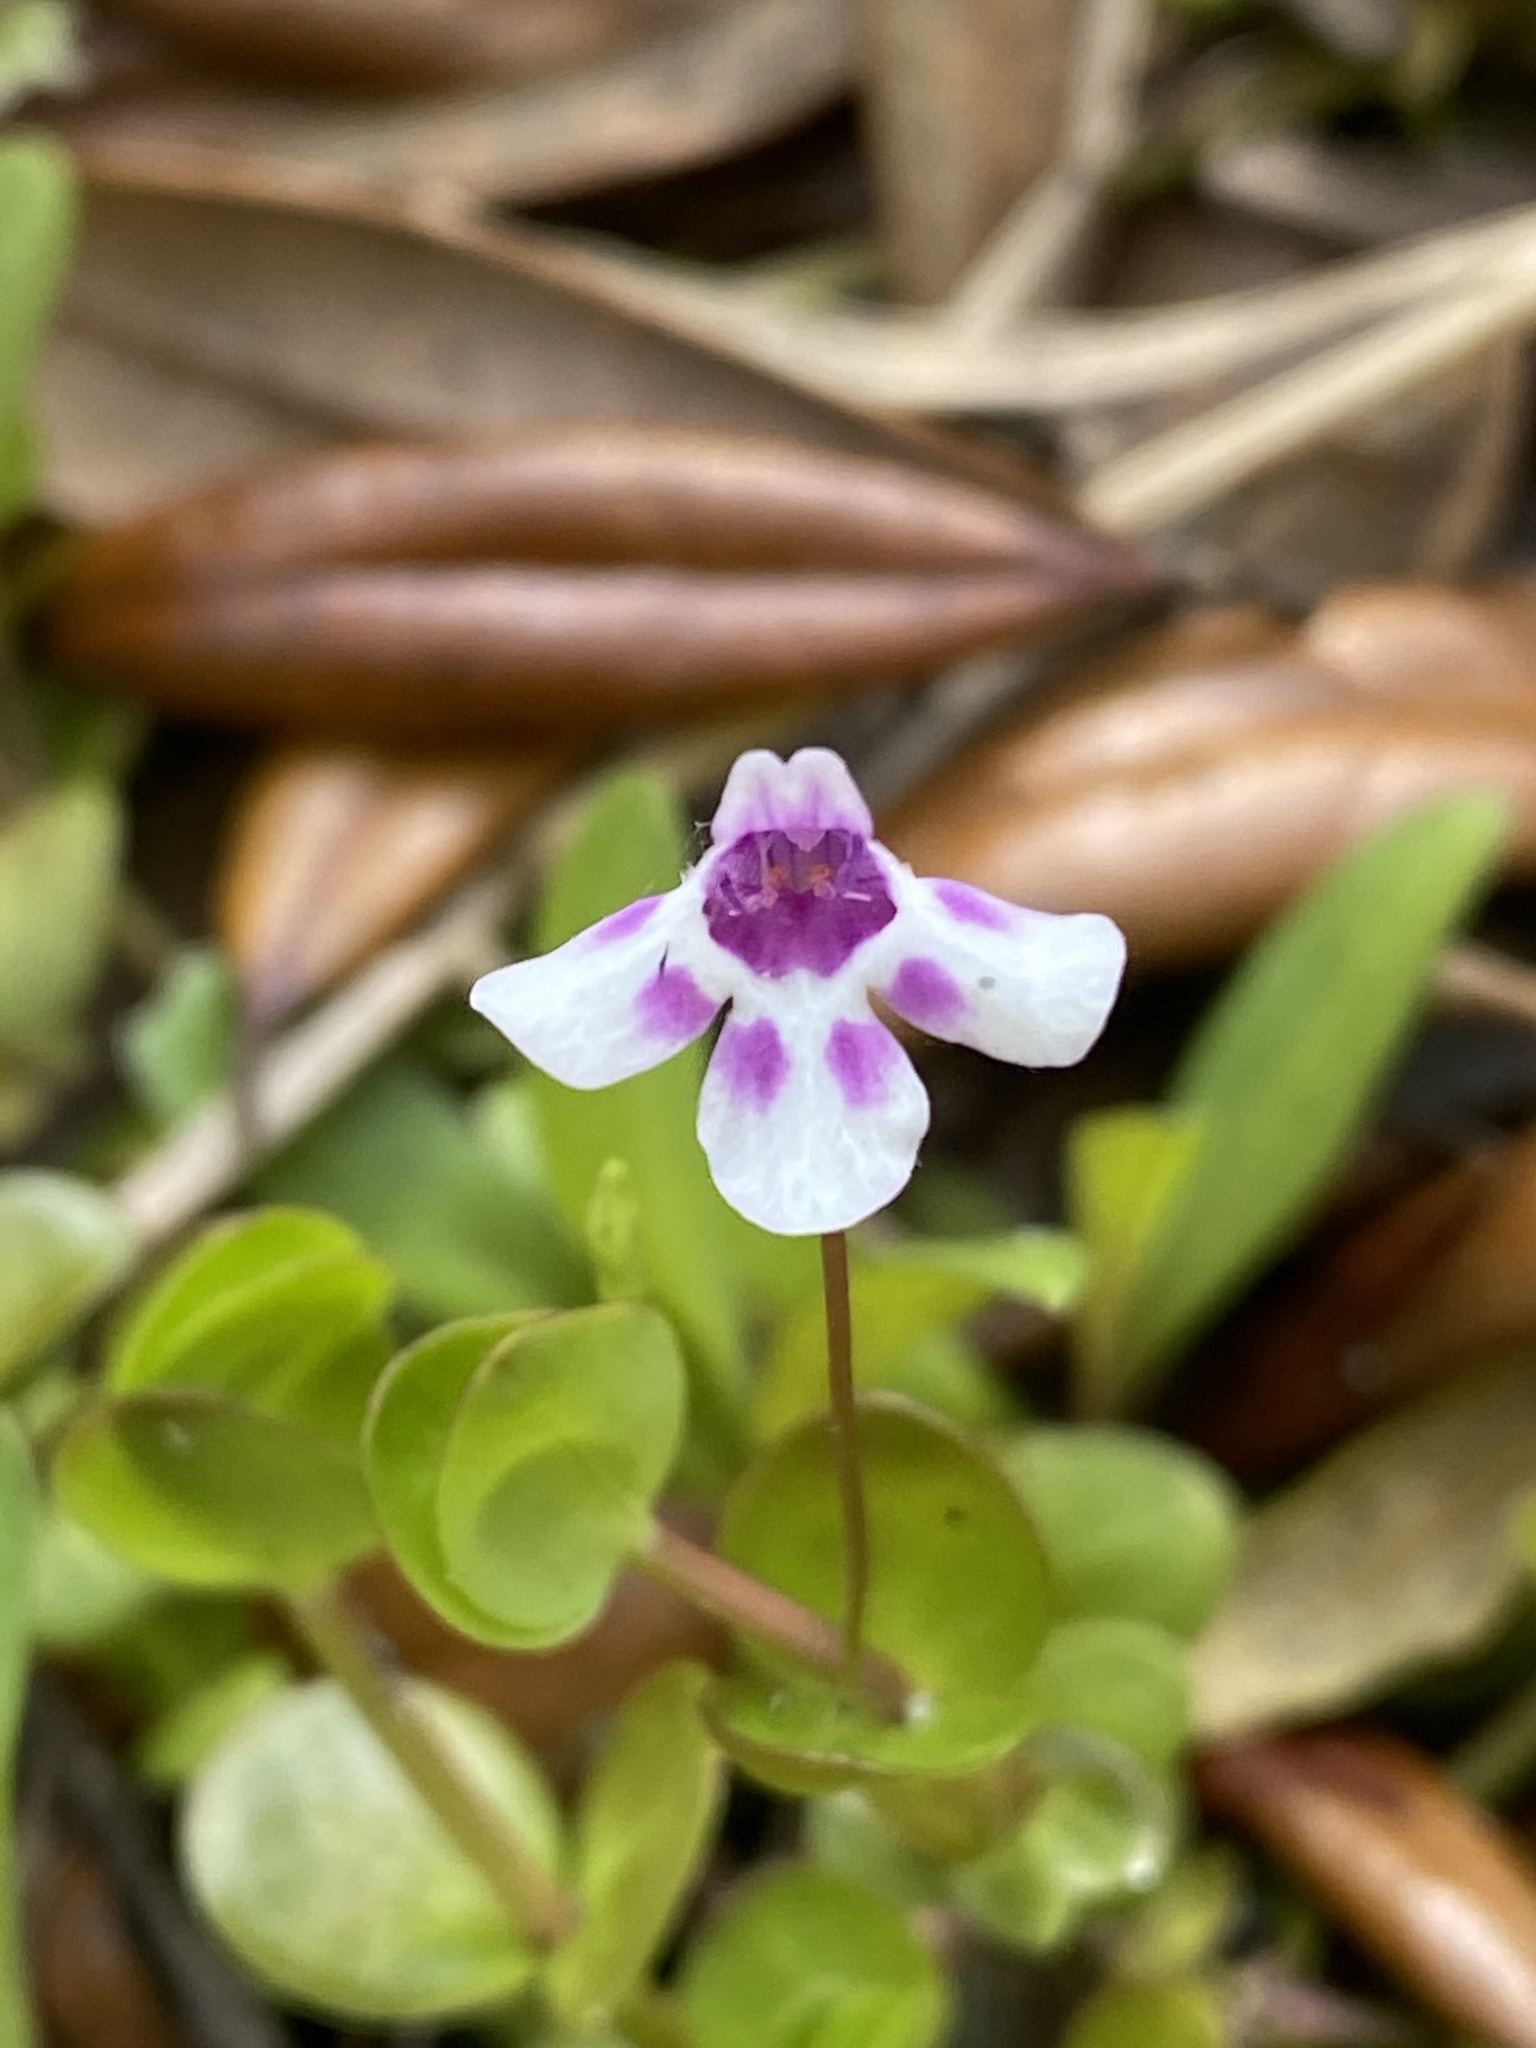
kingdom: Plantae
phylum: Tracheophyta
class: Magnoliopsida
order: Lamiales
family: Linderniaceae
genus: Lindernia
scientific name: Lindernia grandiflora
